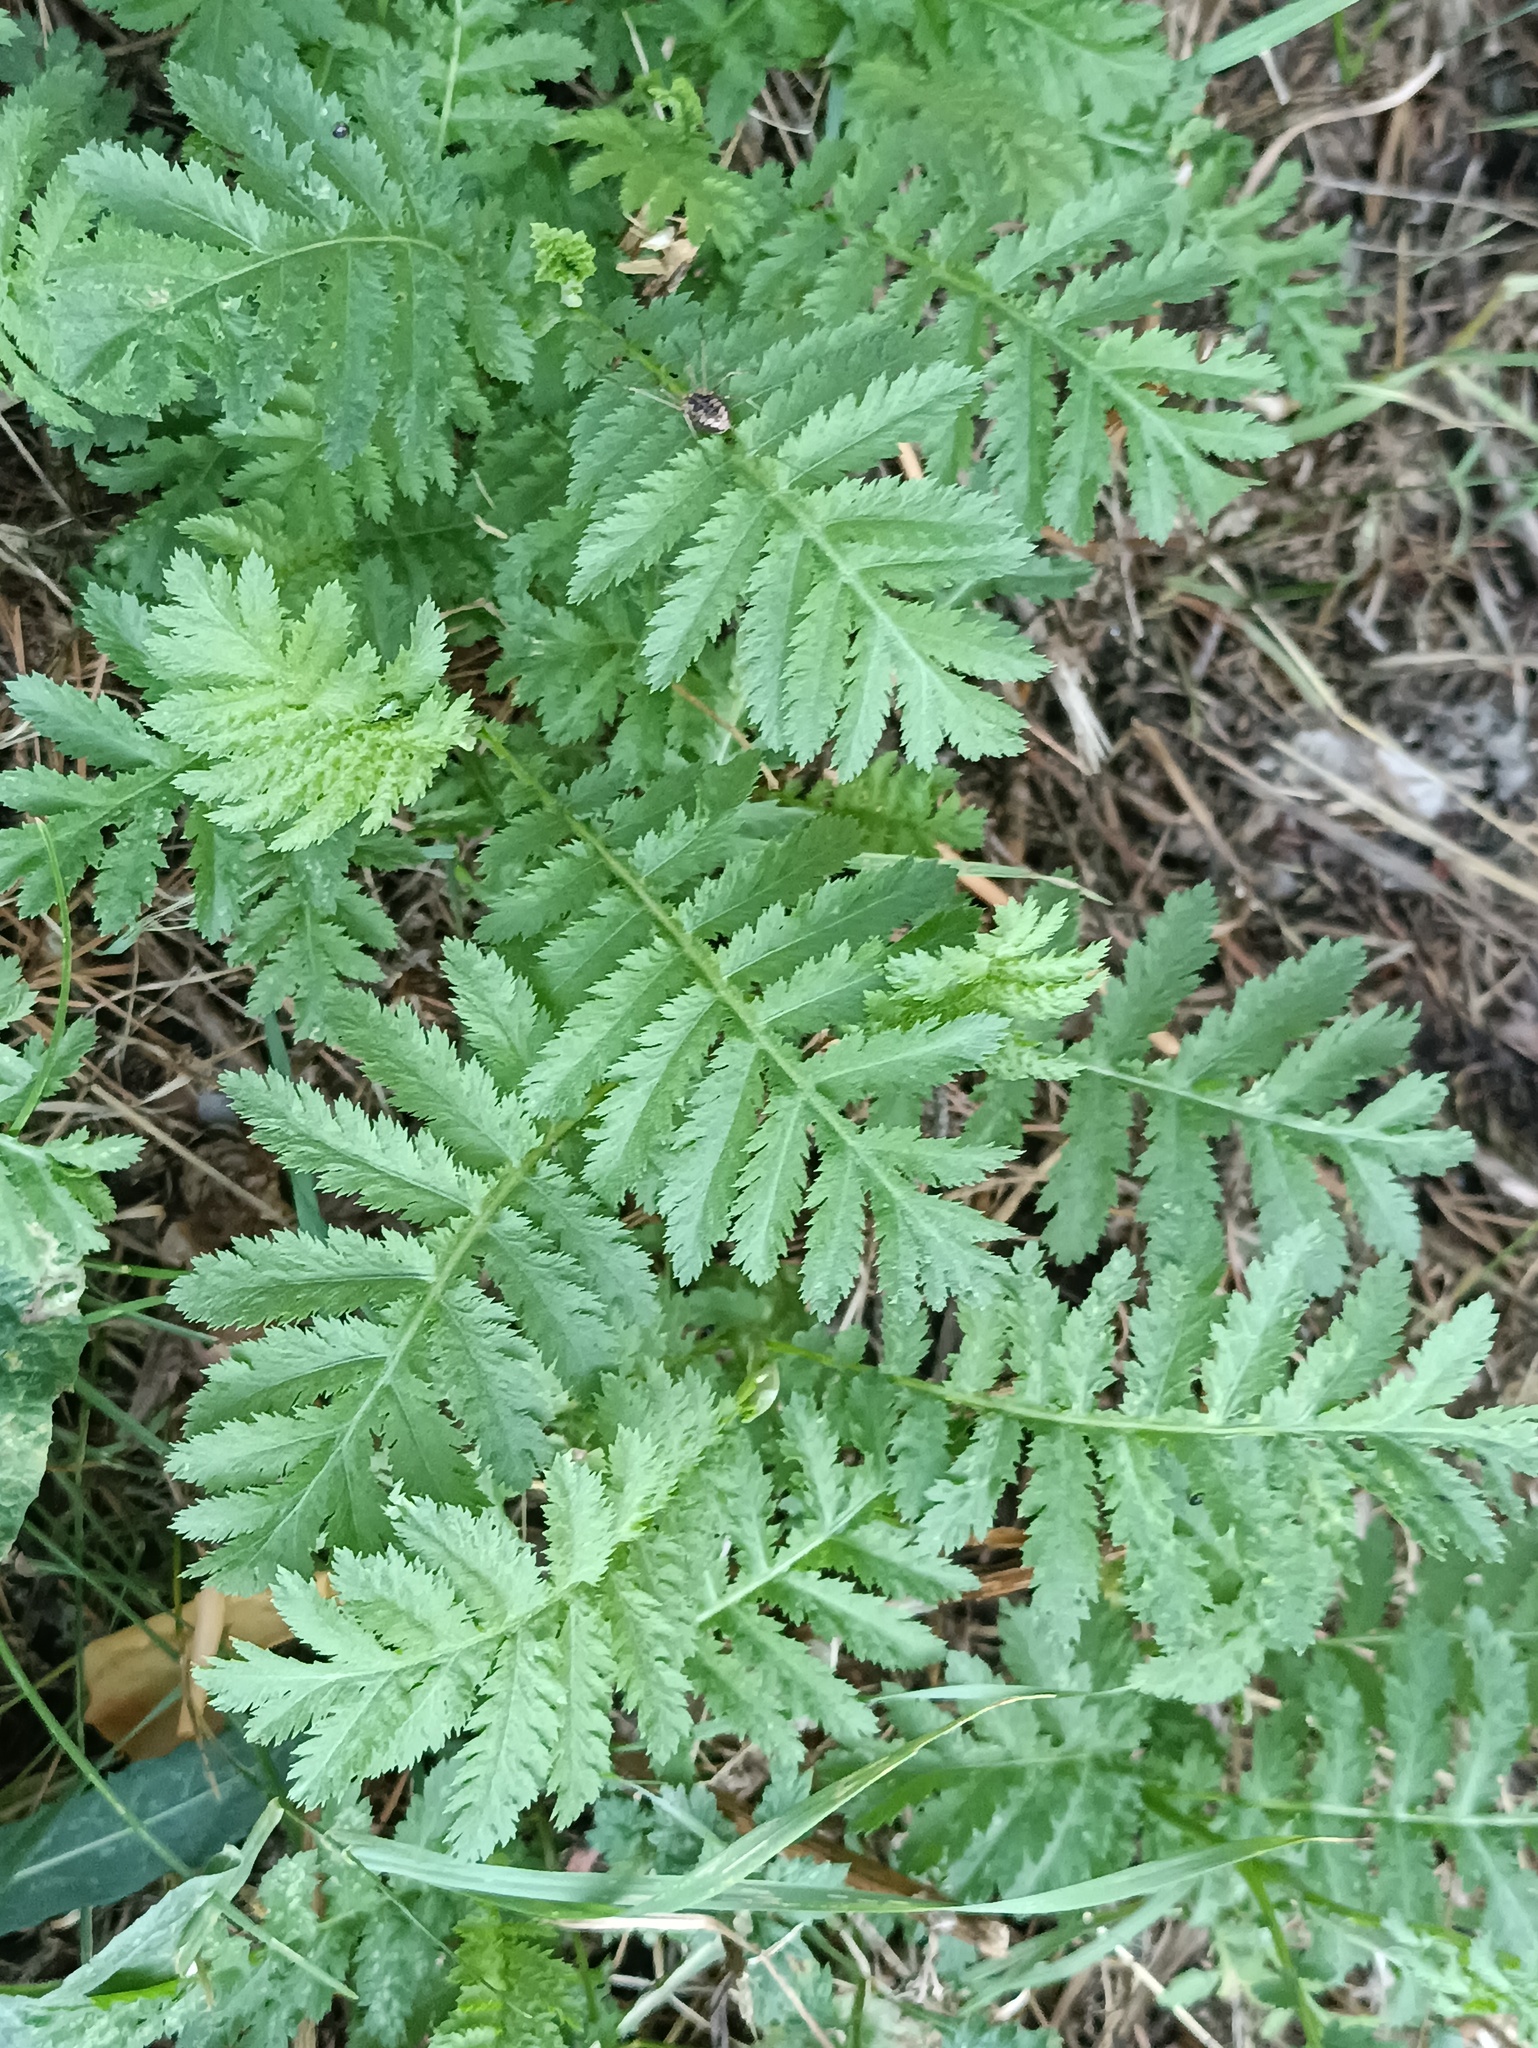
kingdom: Plantae
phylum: Tracheophyta
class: Magnoliopsida
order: Asterales
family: Asteraceae
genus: Tanacetum
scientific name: Tanacetum vulgare
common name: Common tansy
